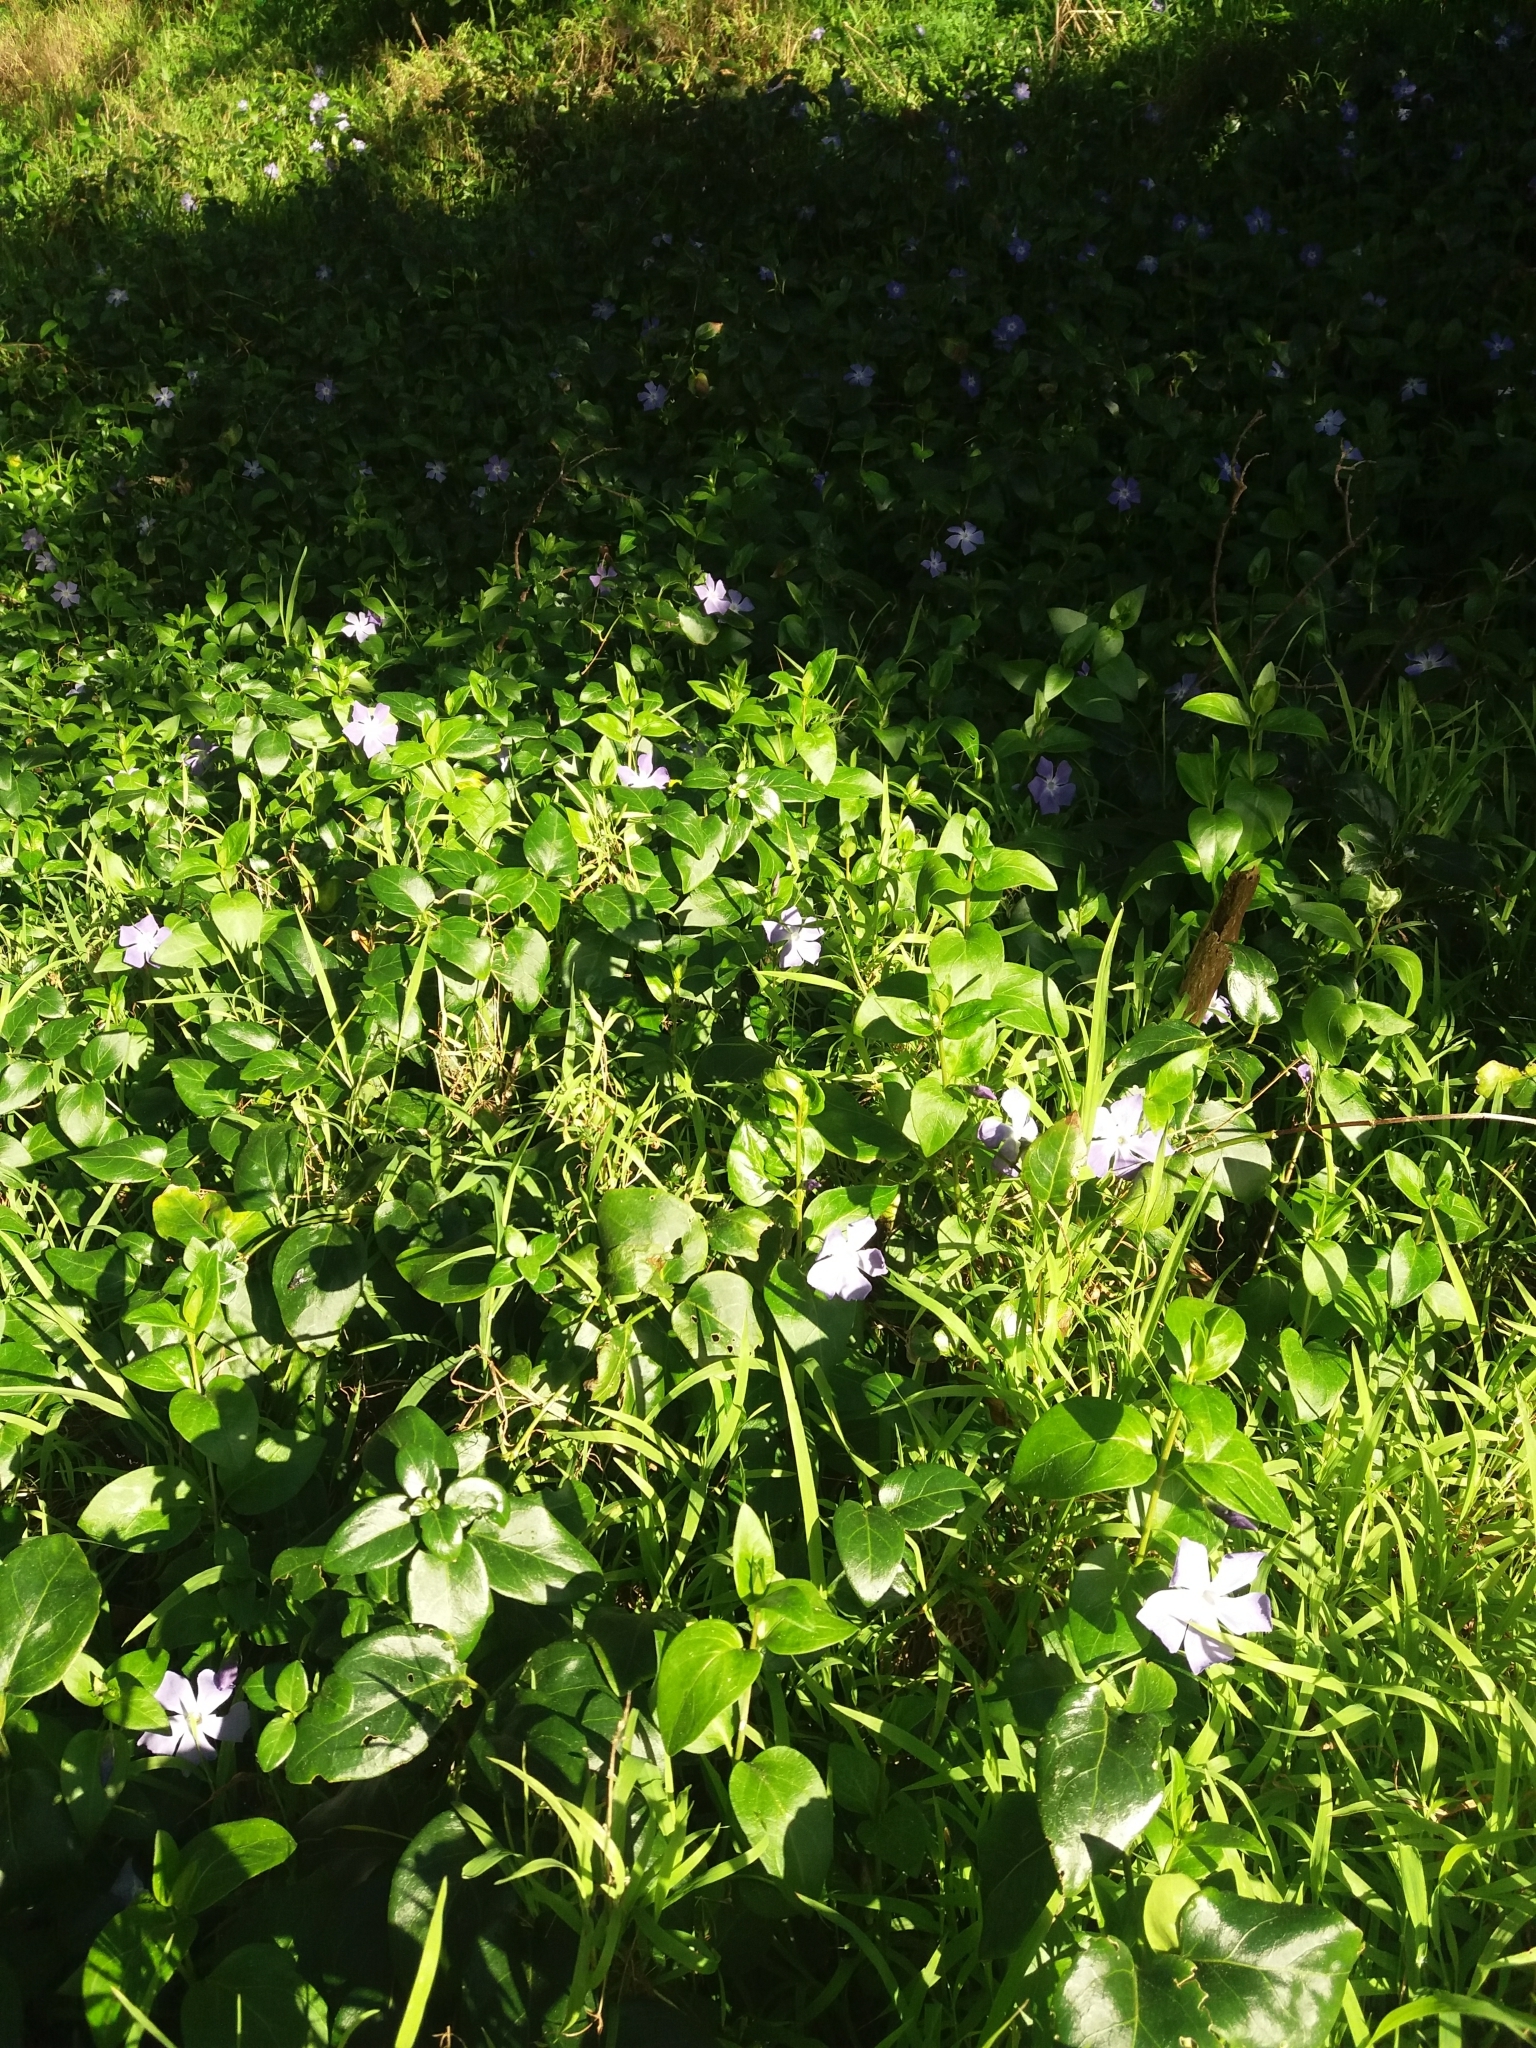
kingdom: Plantae
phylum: Tracheophyta
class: Magnoliopsida
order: Gentianales
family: Apocynaceae
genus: Vinca
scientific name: Vinca major
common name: Greater periwinkle
